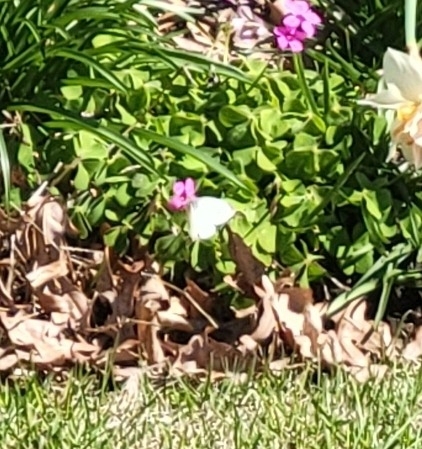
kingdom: Animalia
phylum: Arthropoda
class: Insecta
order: Lepidoptera
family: Pieridae
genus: Pieris
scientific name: Pieris rapae
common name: Small white
